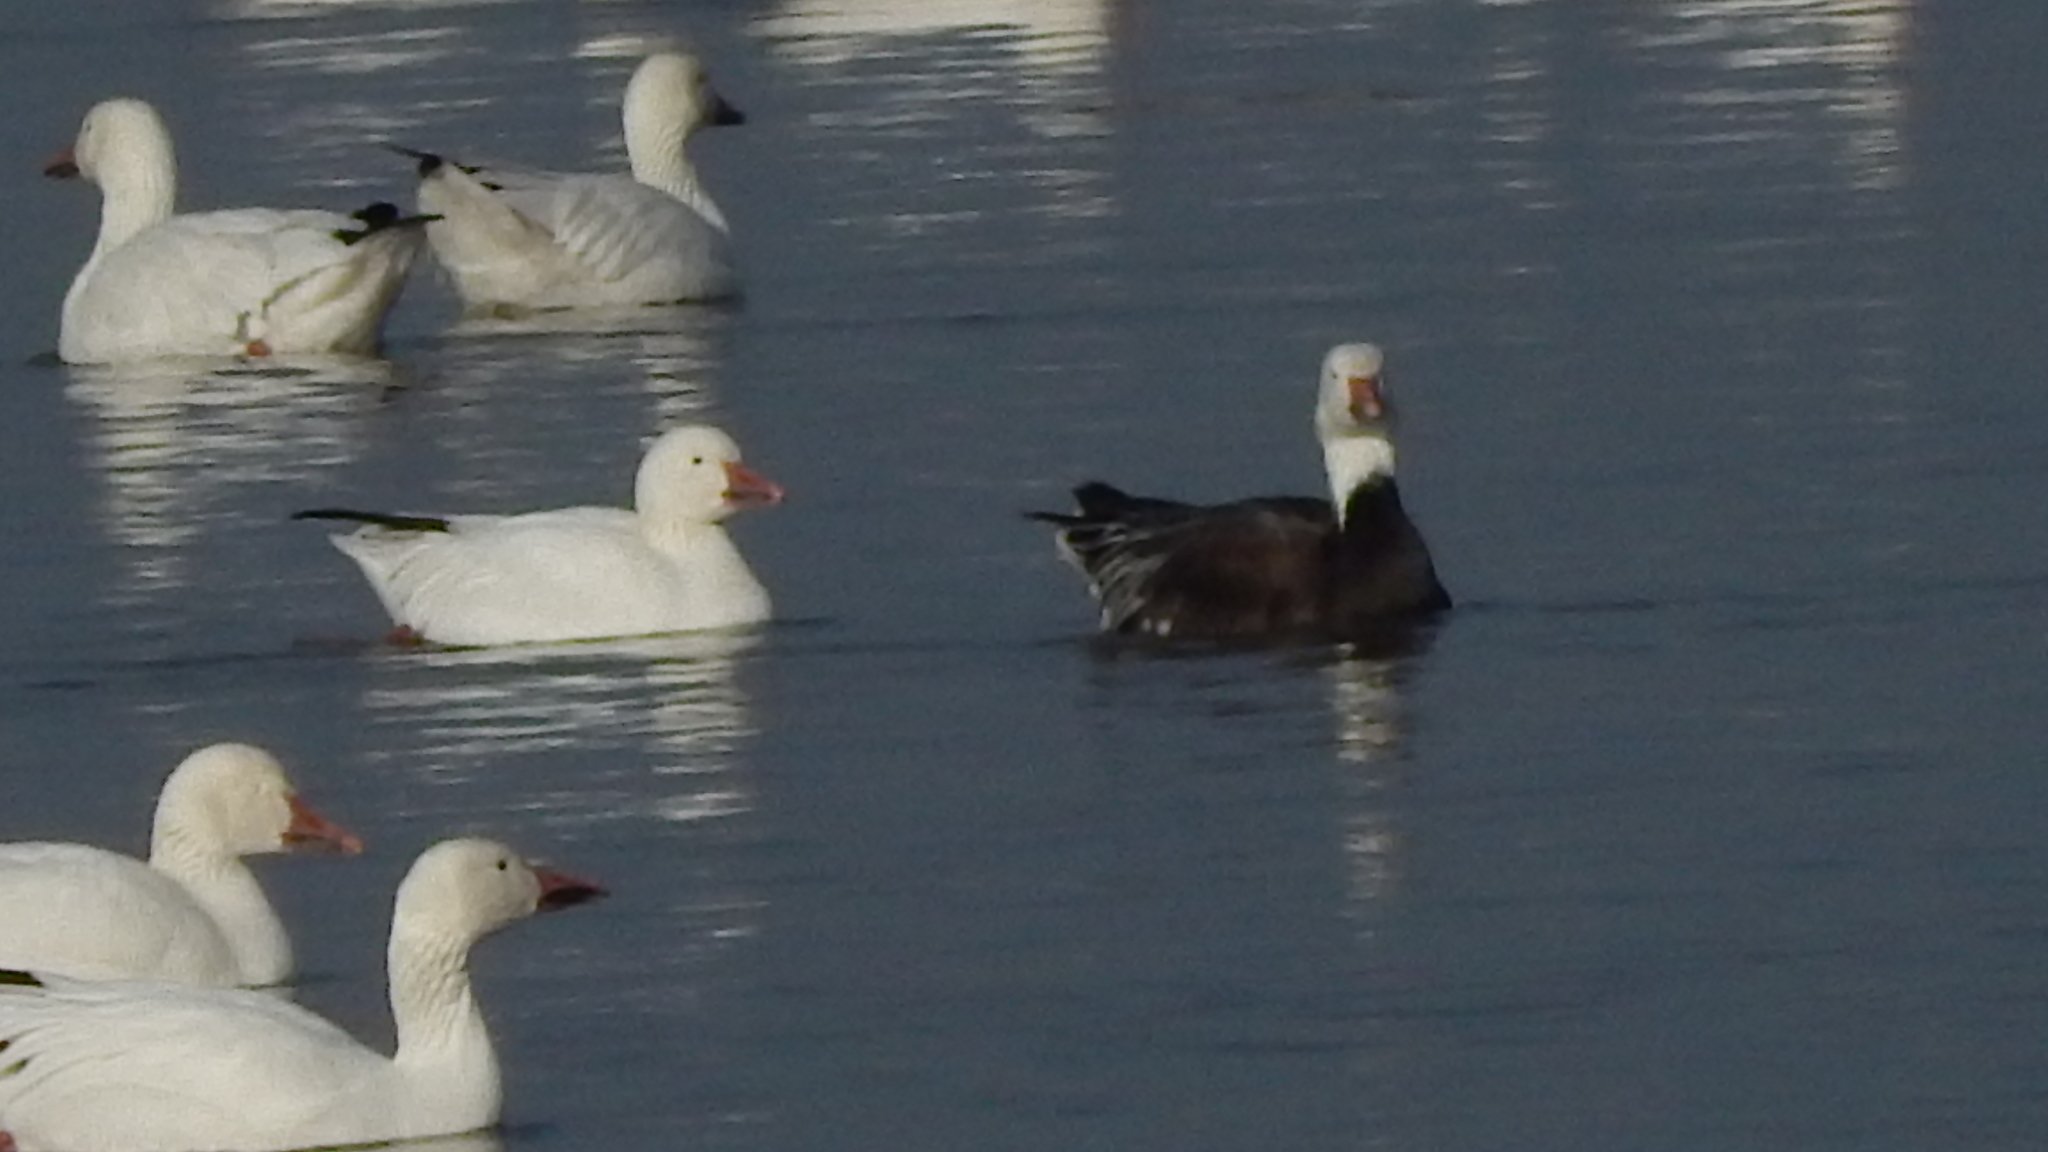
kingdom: Animalia
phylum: Chordata
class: Aves
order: Anseriformes
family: Anatidae
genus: Anser
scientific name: Anser caerulescens
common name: Snow goose
